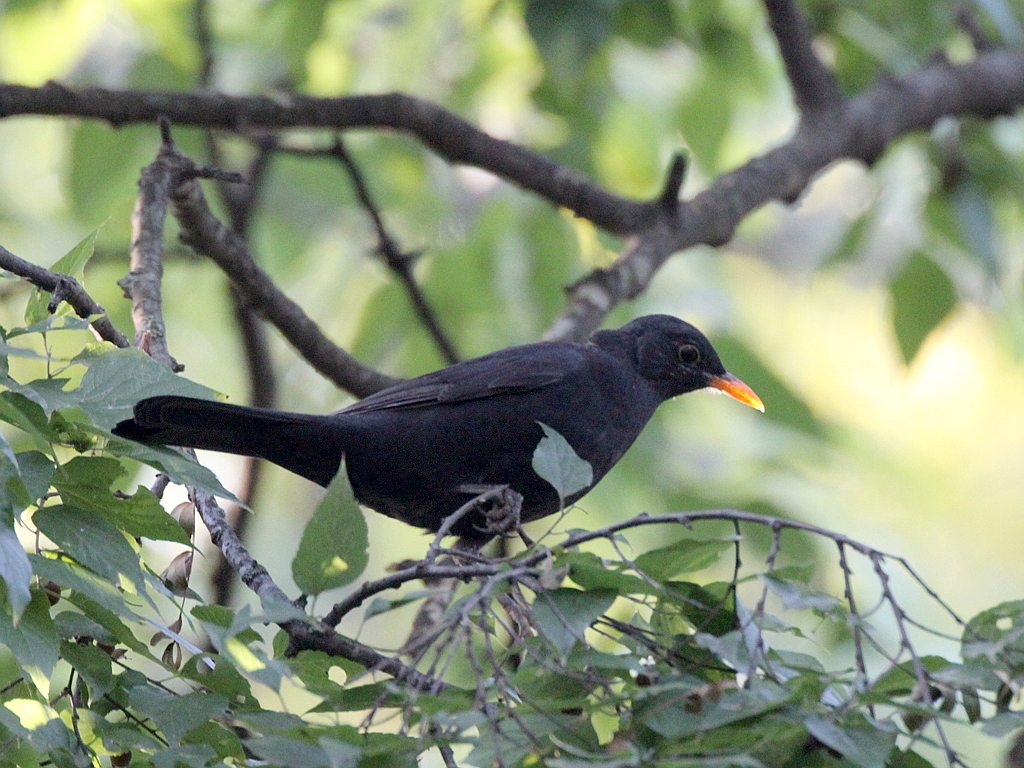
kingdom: Animalia
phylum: Chordata
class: Aves
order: Passeriformes
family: Turdidae
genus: Turdus
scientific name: Turdus merula
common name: Common blackbird
